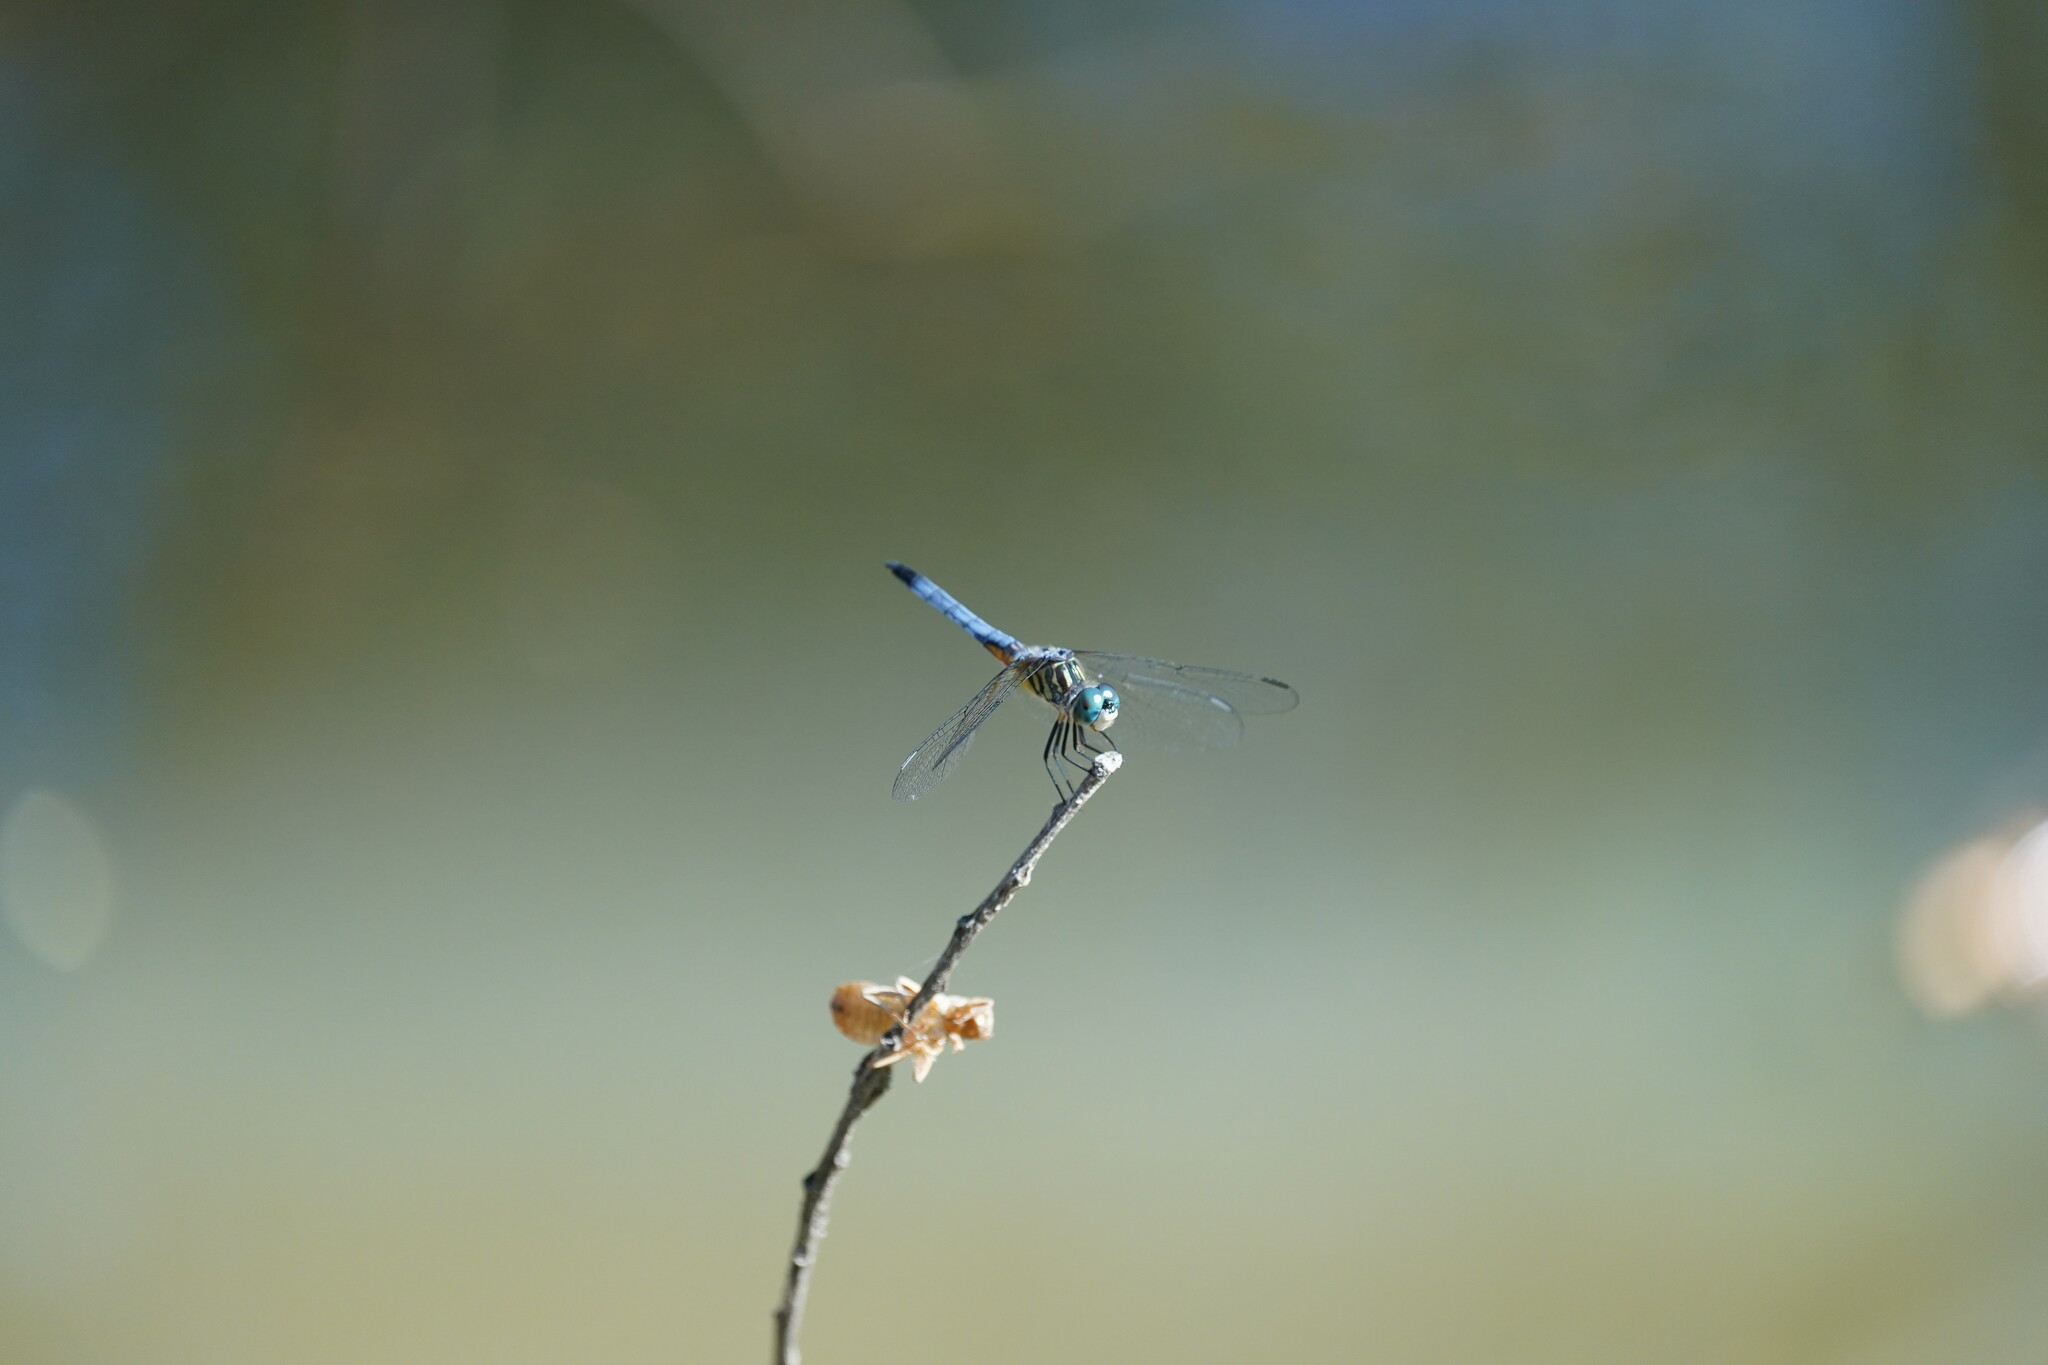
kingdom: Animalia
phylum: Arthropoda
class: Insecta
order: Odonata
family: Libellulidae
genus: Pachydiplax
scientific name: Pachydiplax longipennis
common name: Blue dasher
